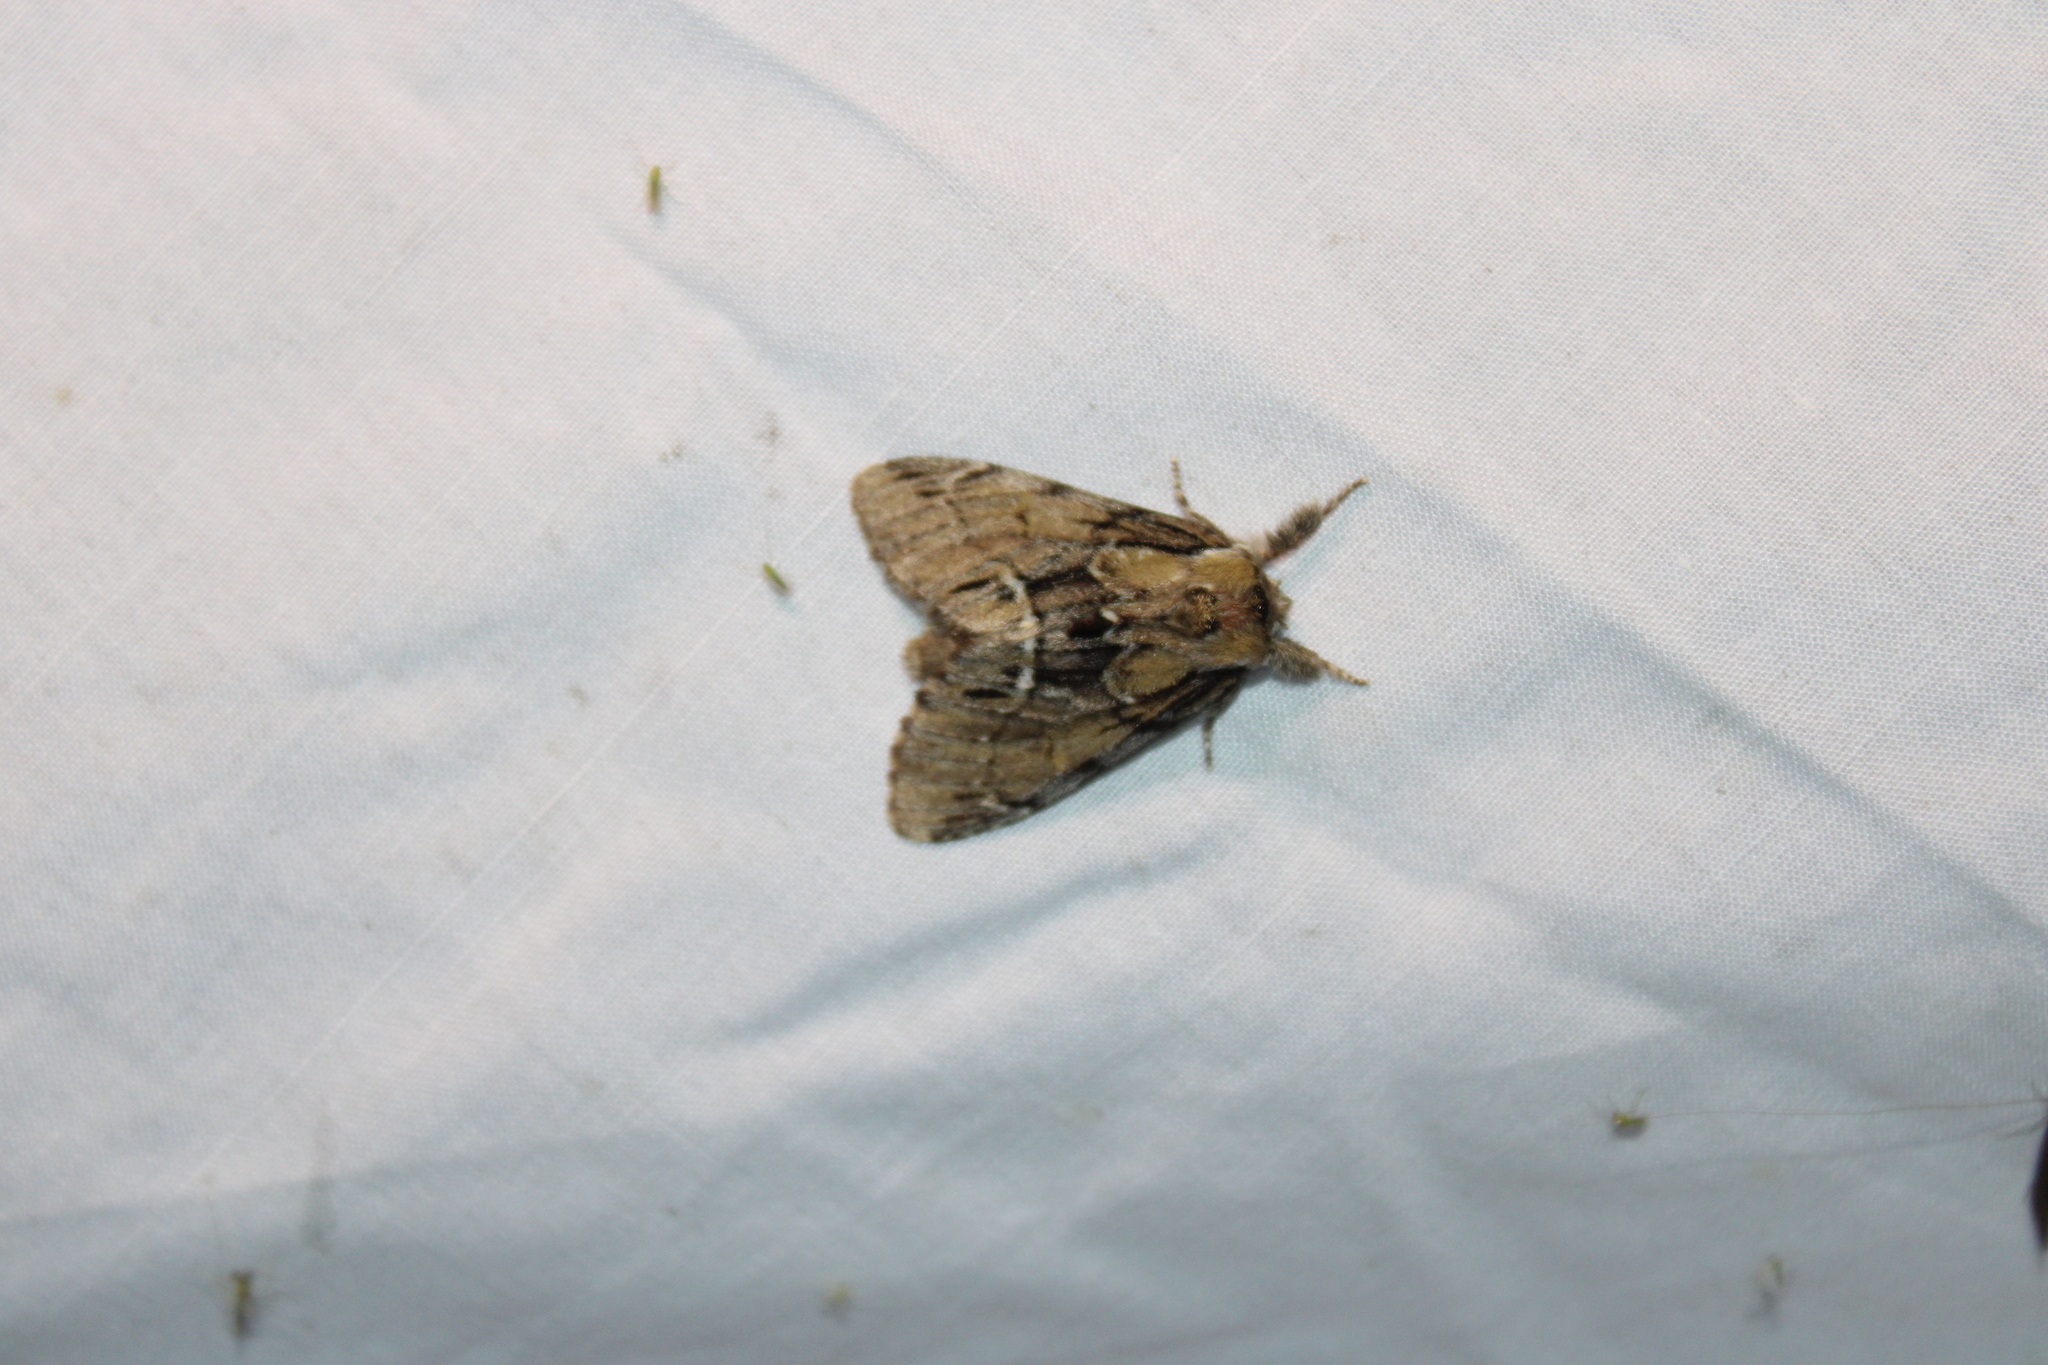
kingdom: Animalia
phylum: Arthropoda
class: Insecta
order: Lepidoptera
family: Notodontidae
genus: Paraeschra
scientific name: Paraeschra georgica
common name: Georgian prominent
